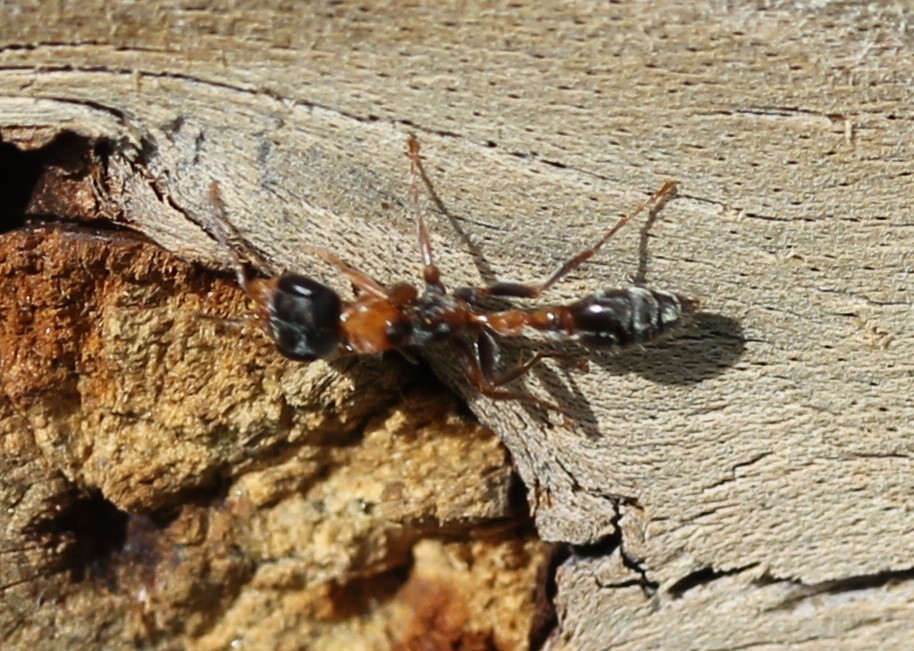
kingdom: Animalia
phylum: Arthropoda
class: Insecta
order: Hymenoptera
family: Formicidae
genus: Pseudomyrmex
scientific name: Pseudomyrmex gracilis
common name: Graceful twig ant
